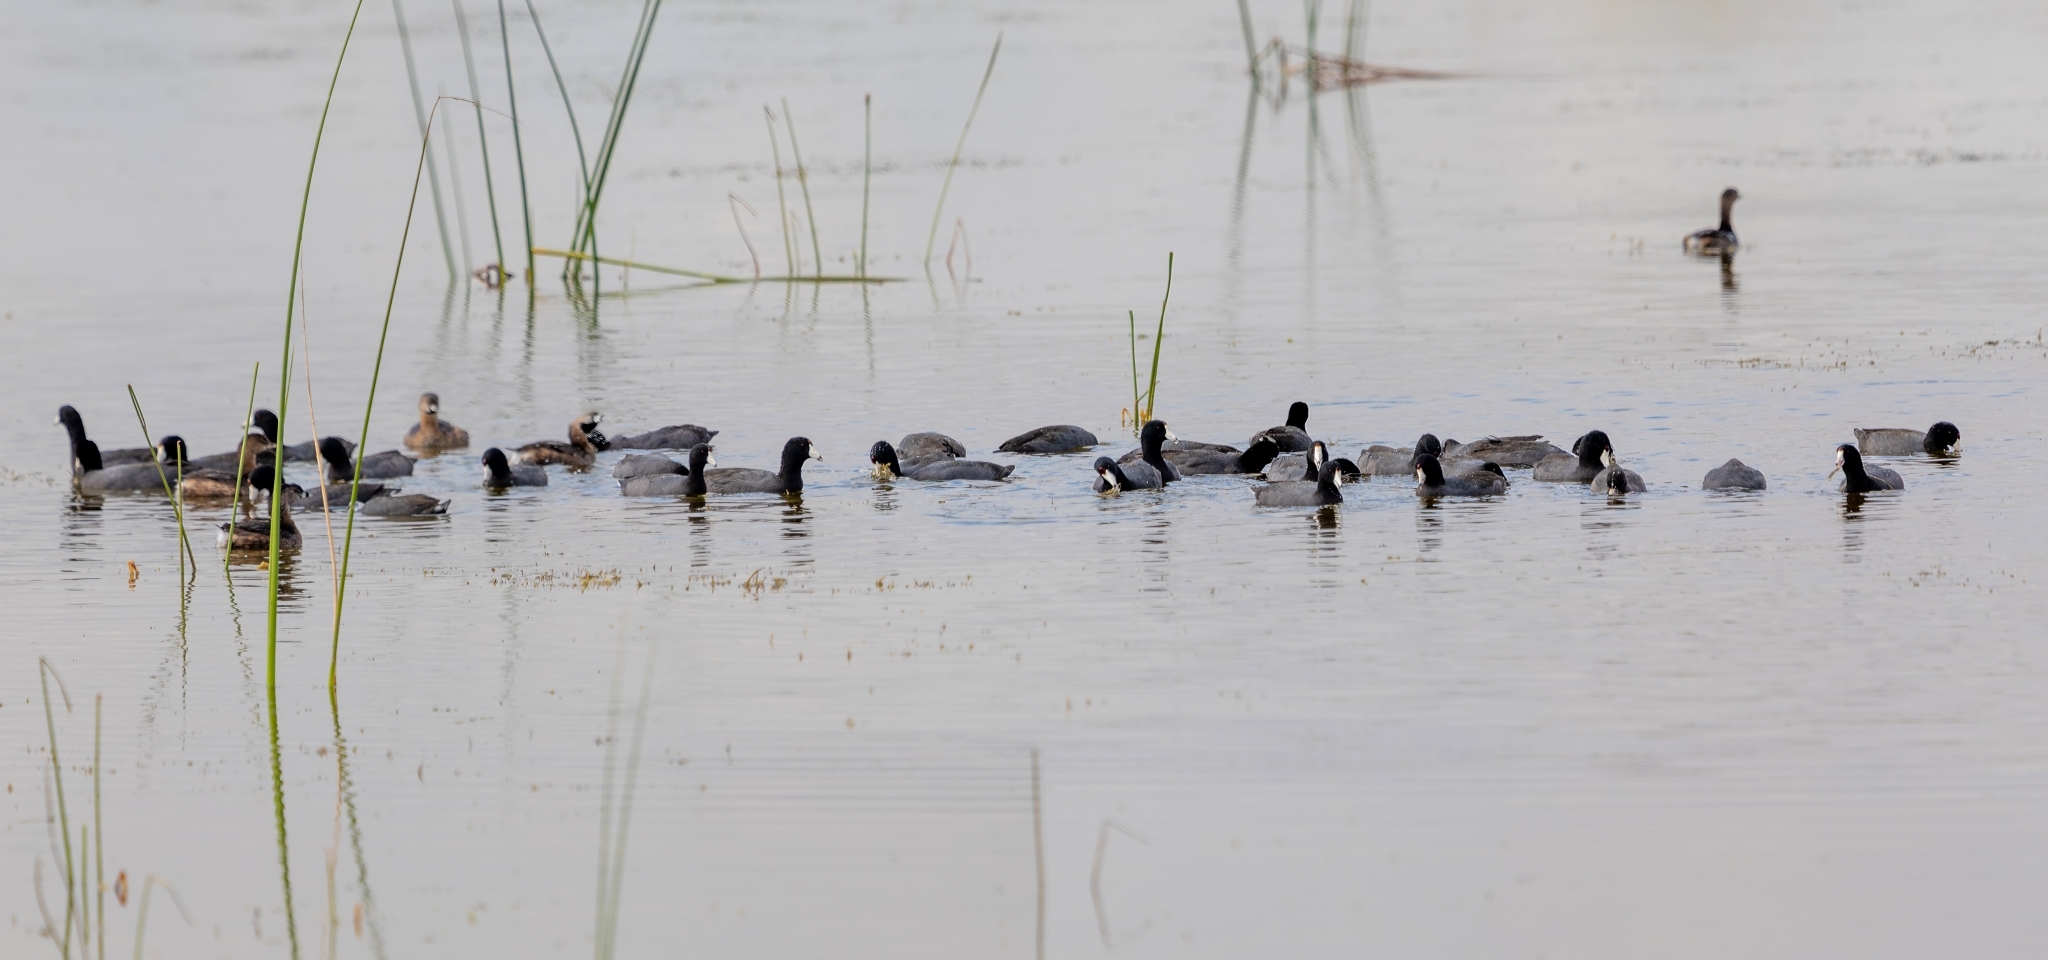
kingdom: Animalia
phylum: Chordata
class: Aves
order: Gruiformes
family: Rallidae
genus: Fulica
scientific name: Fulica americana
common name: American coot
